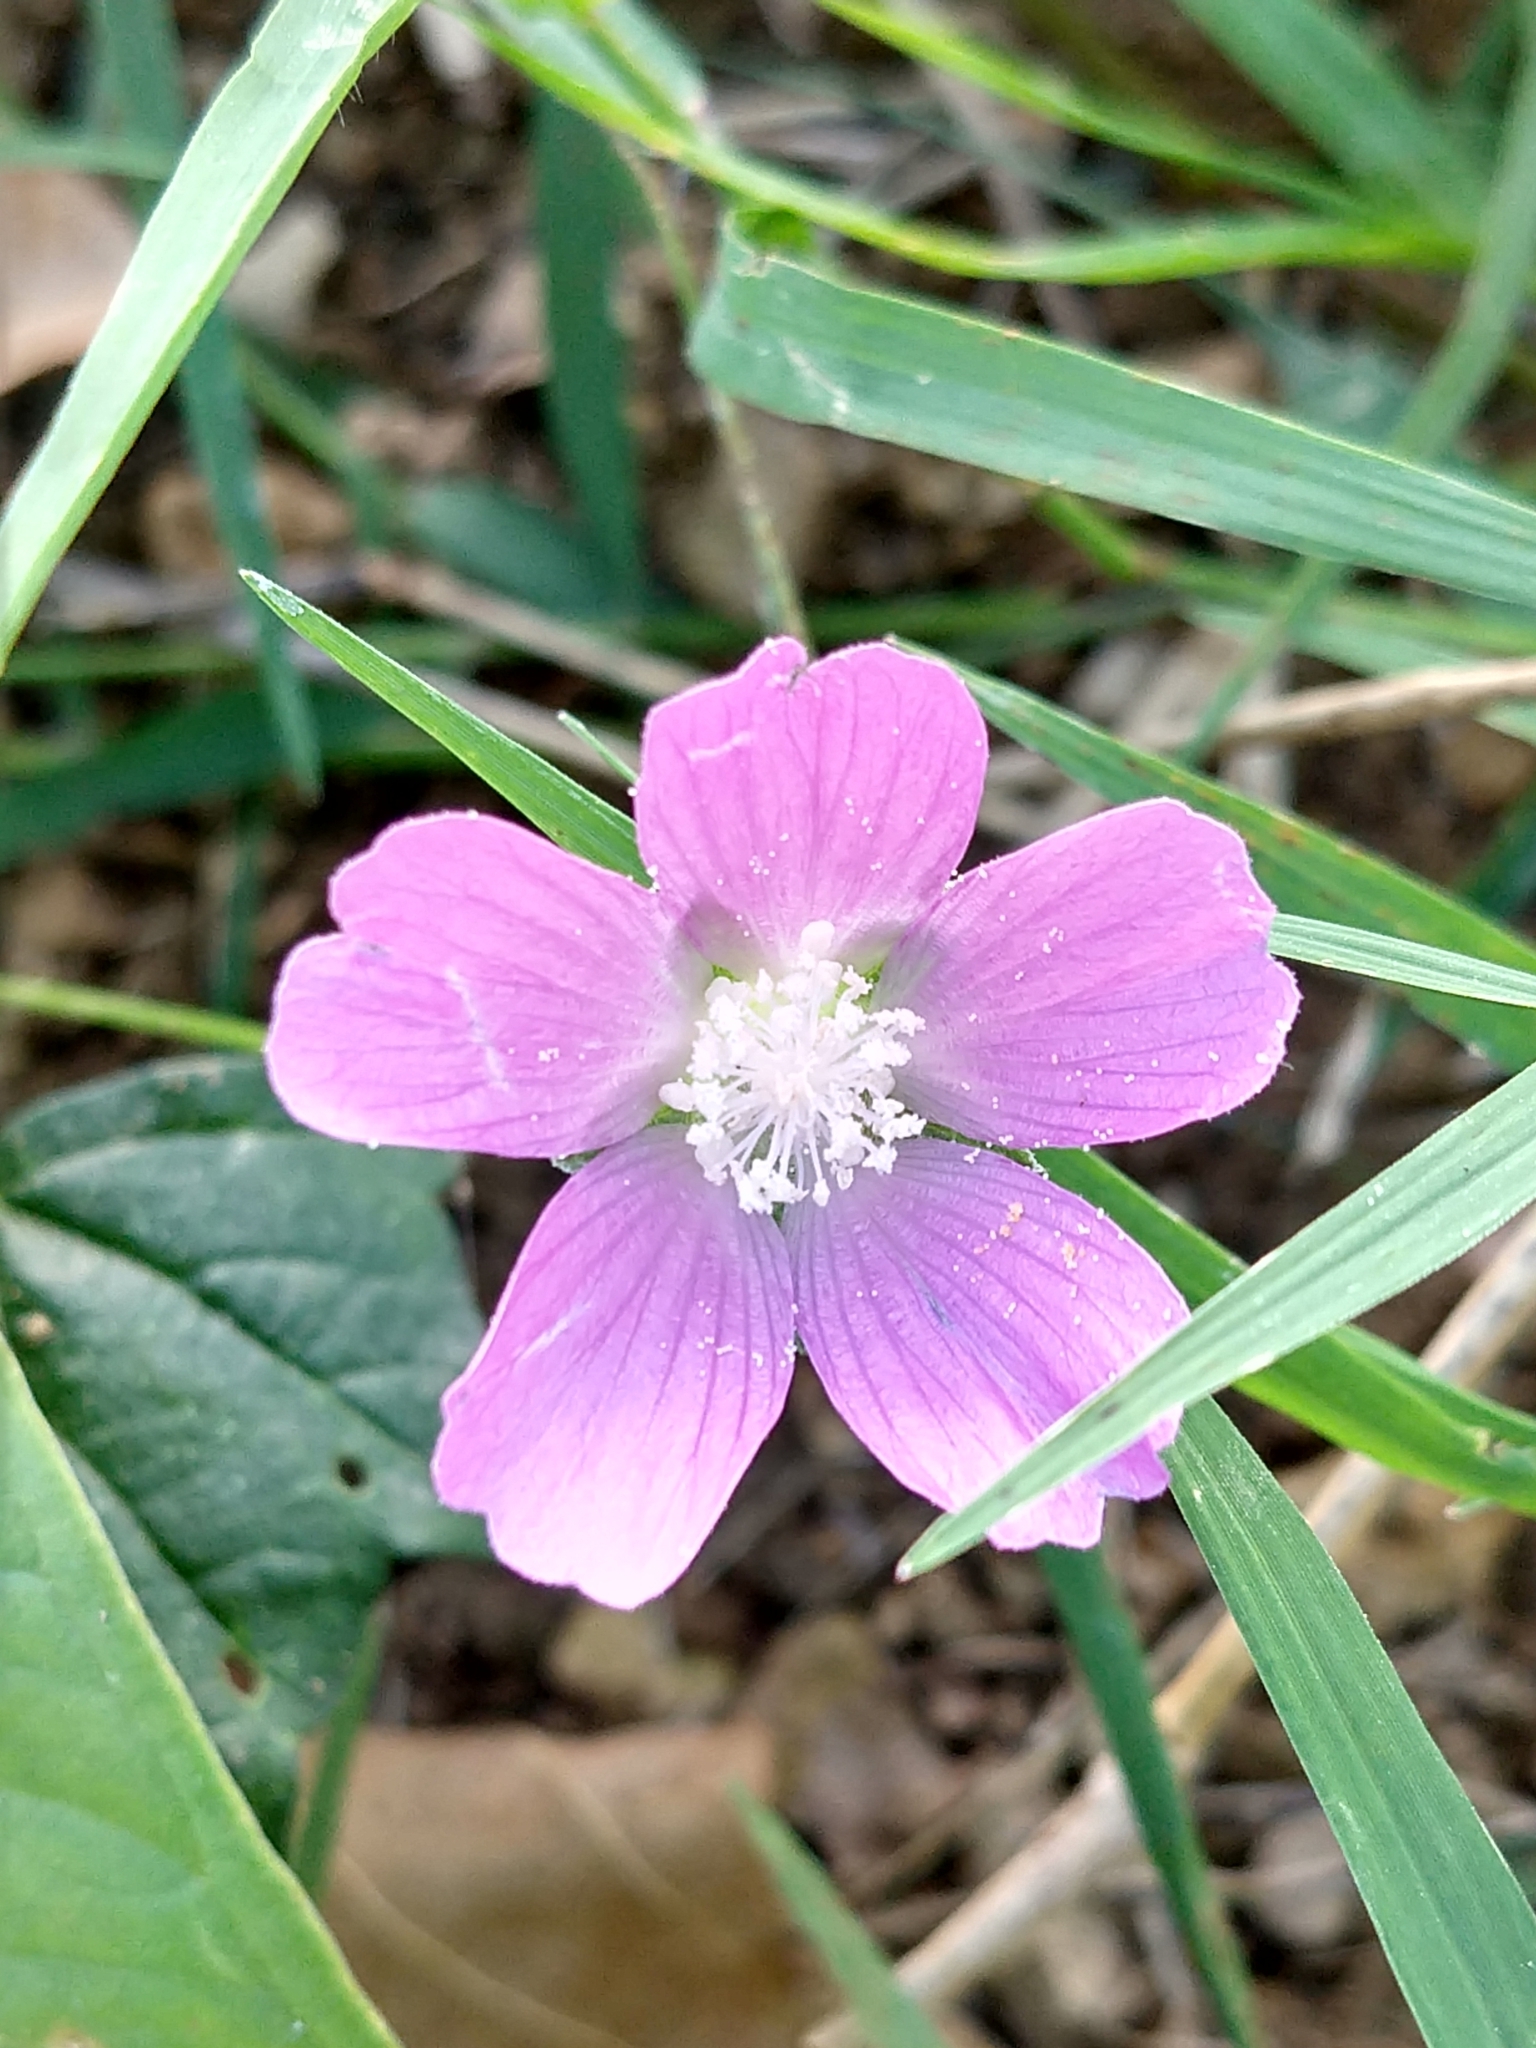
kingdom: Plantae
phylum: Tracheophyta
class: Magnoliopsida
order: Malvales
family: Malvaceae
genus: Anoda
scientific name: Anoda cristata
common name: Spurred anoda
